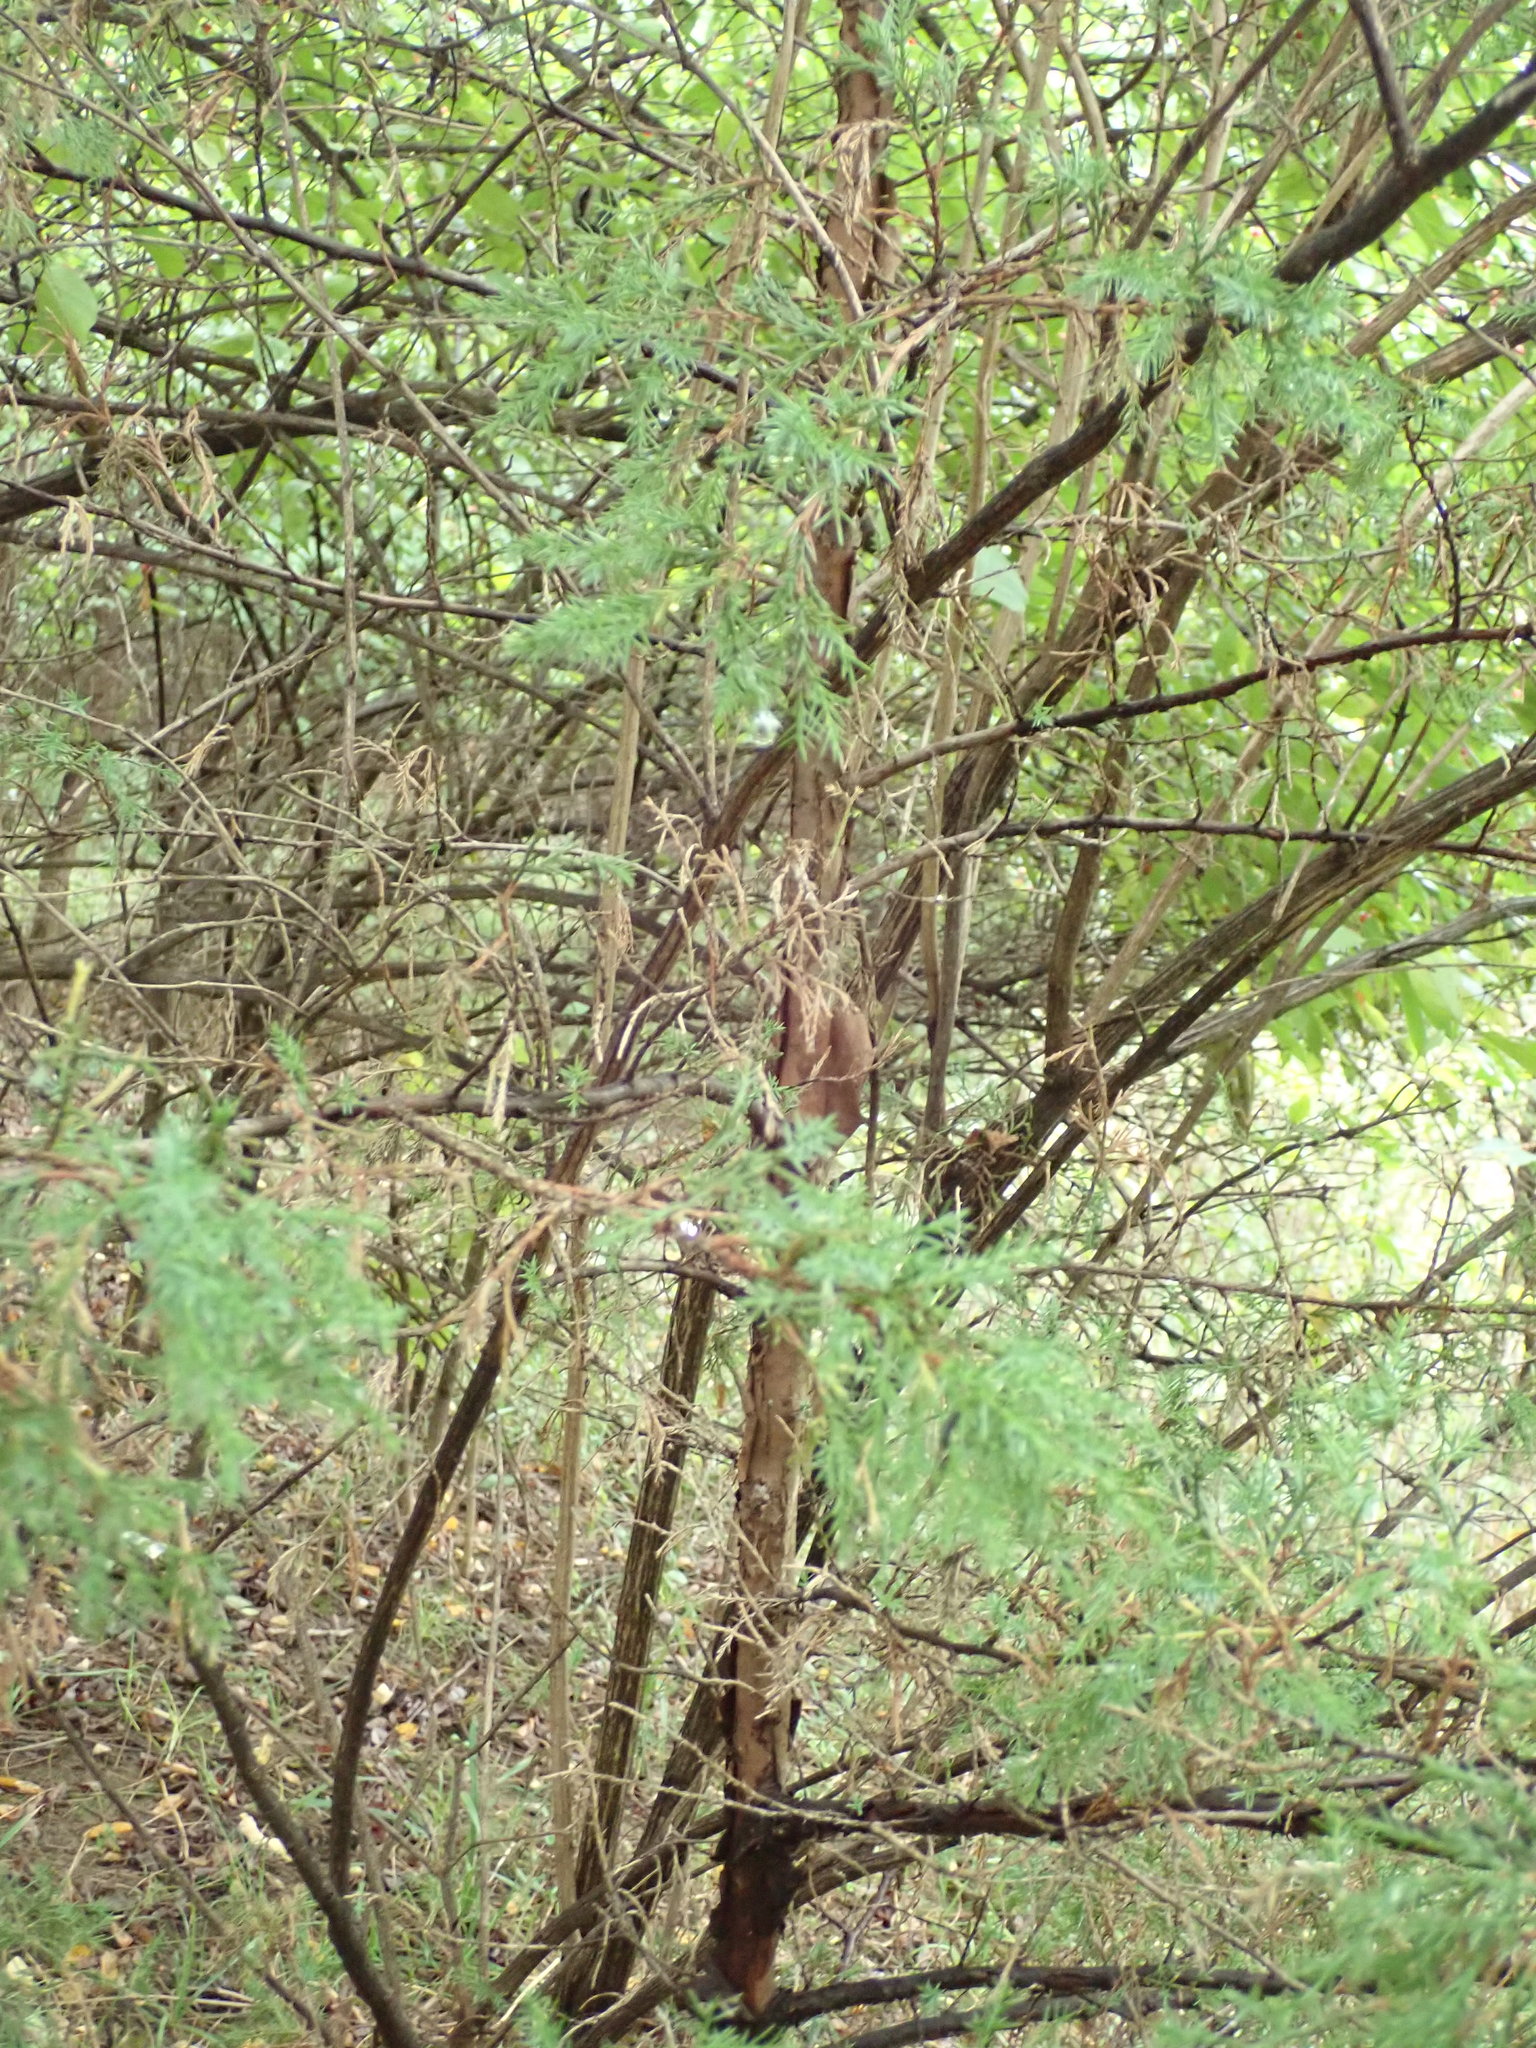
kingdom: Plantae
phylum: Tracheophyta
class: Pinopsida
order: Pinales
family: Cupressaceae
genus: Juniperus
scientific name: Juniperus virginiana
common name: Red juniper
